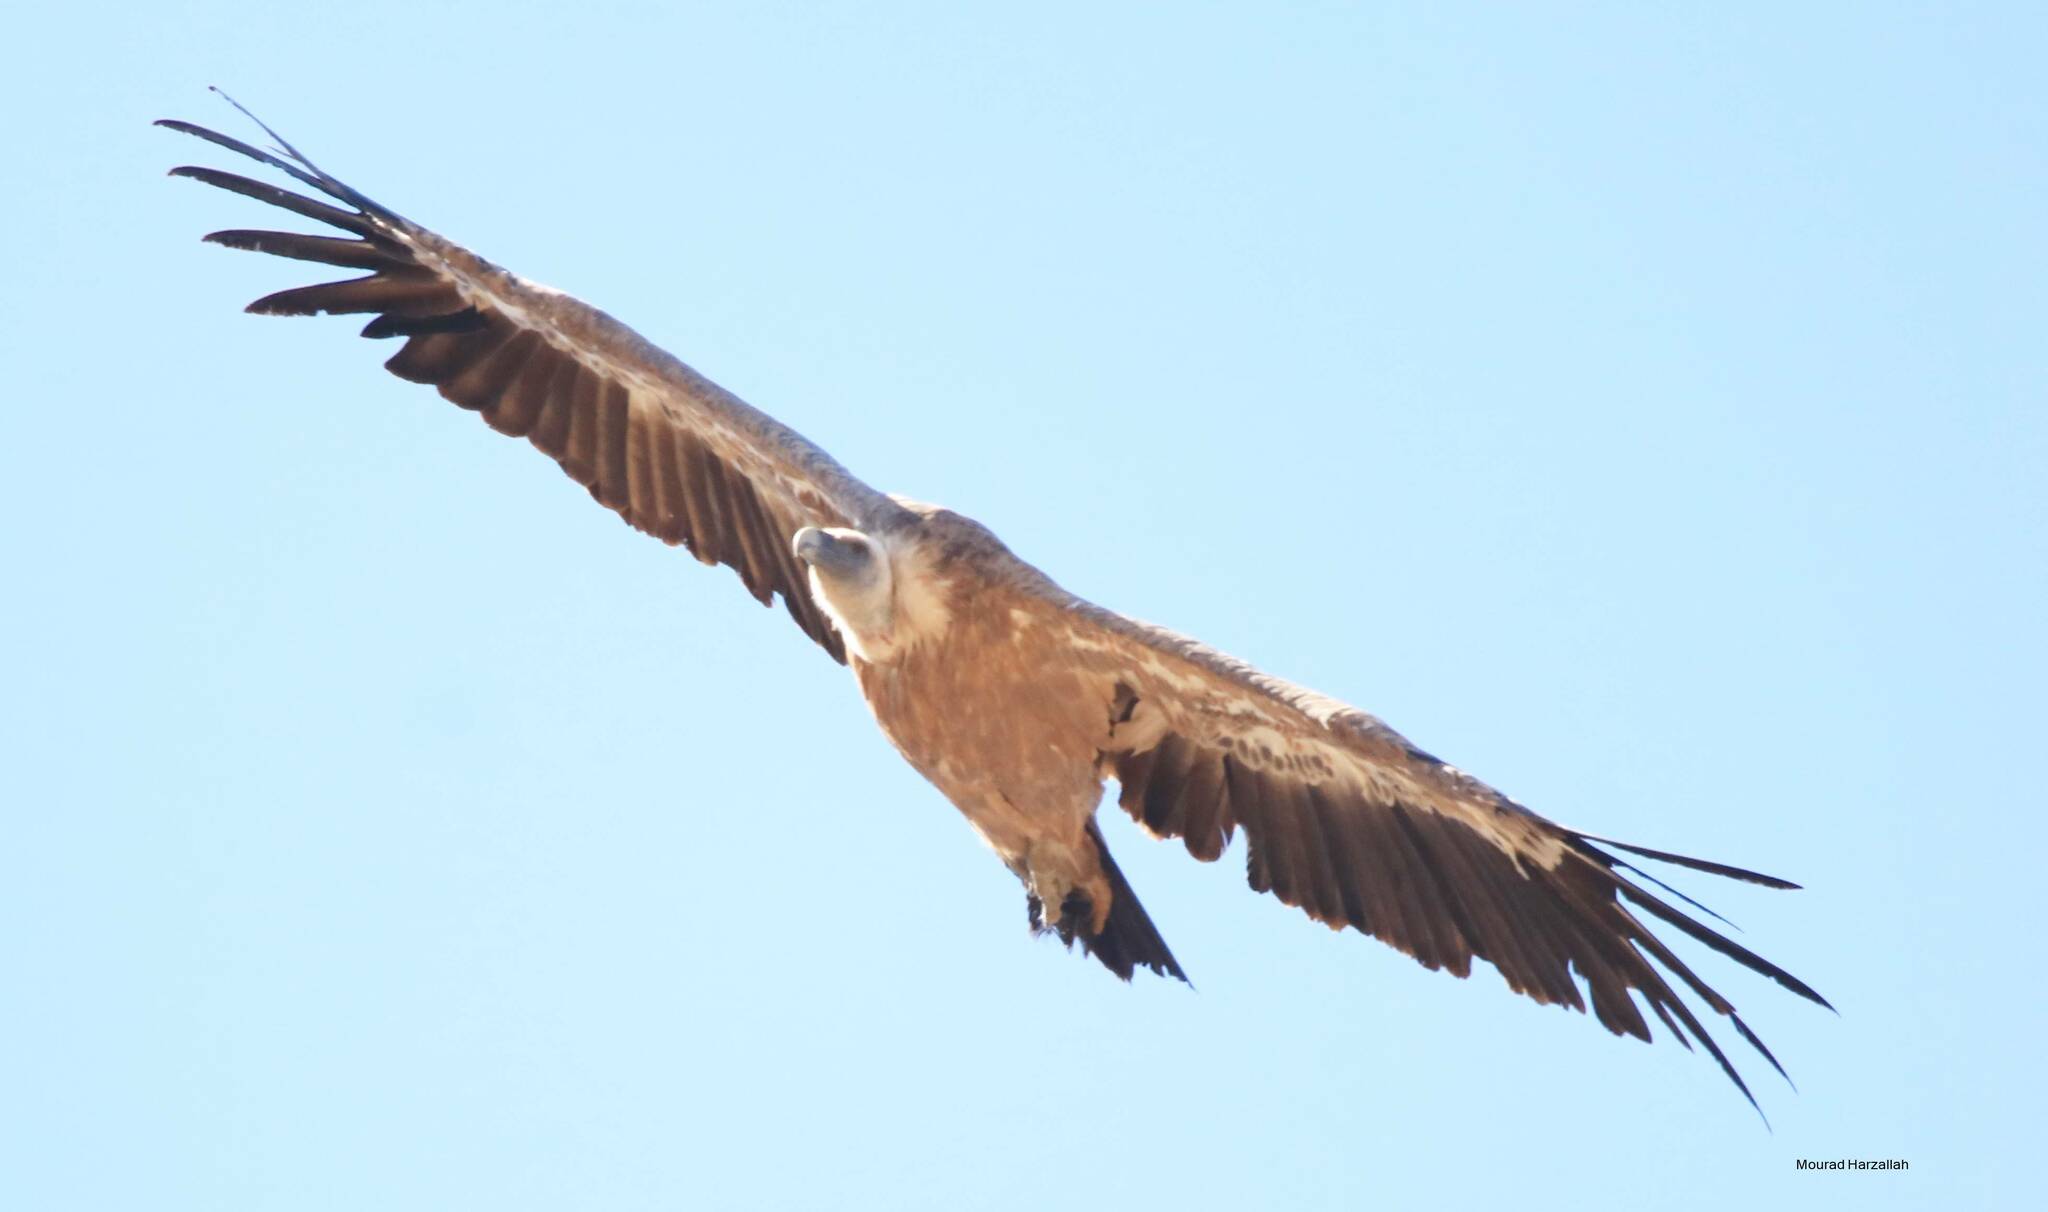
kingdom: Animalia
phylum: Chordata
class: Aves
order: Accipitriformes
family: Accipitridae
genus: Gyps
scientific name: Gyps fulvus
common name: Griffon vulture
